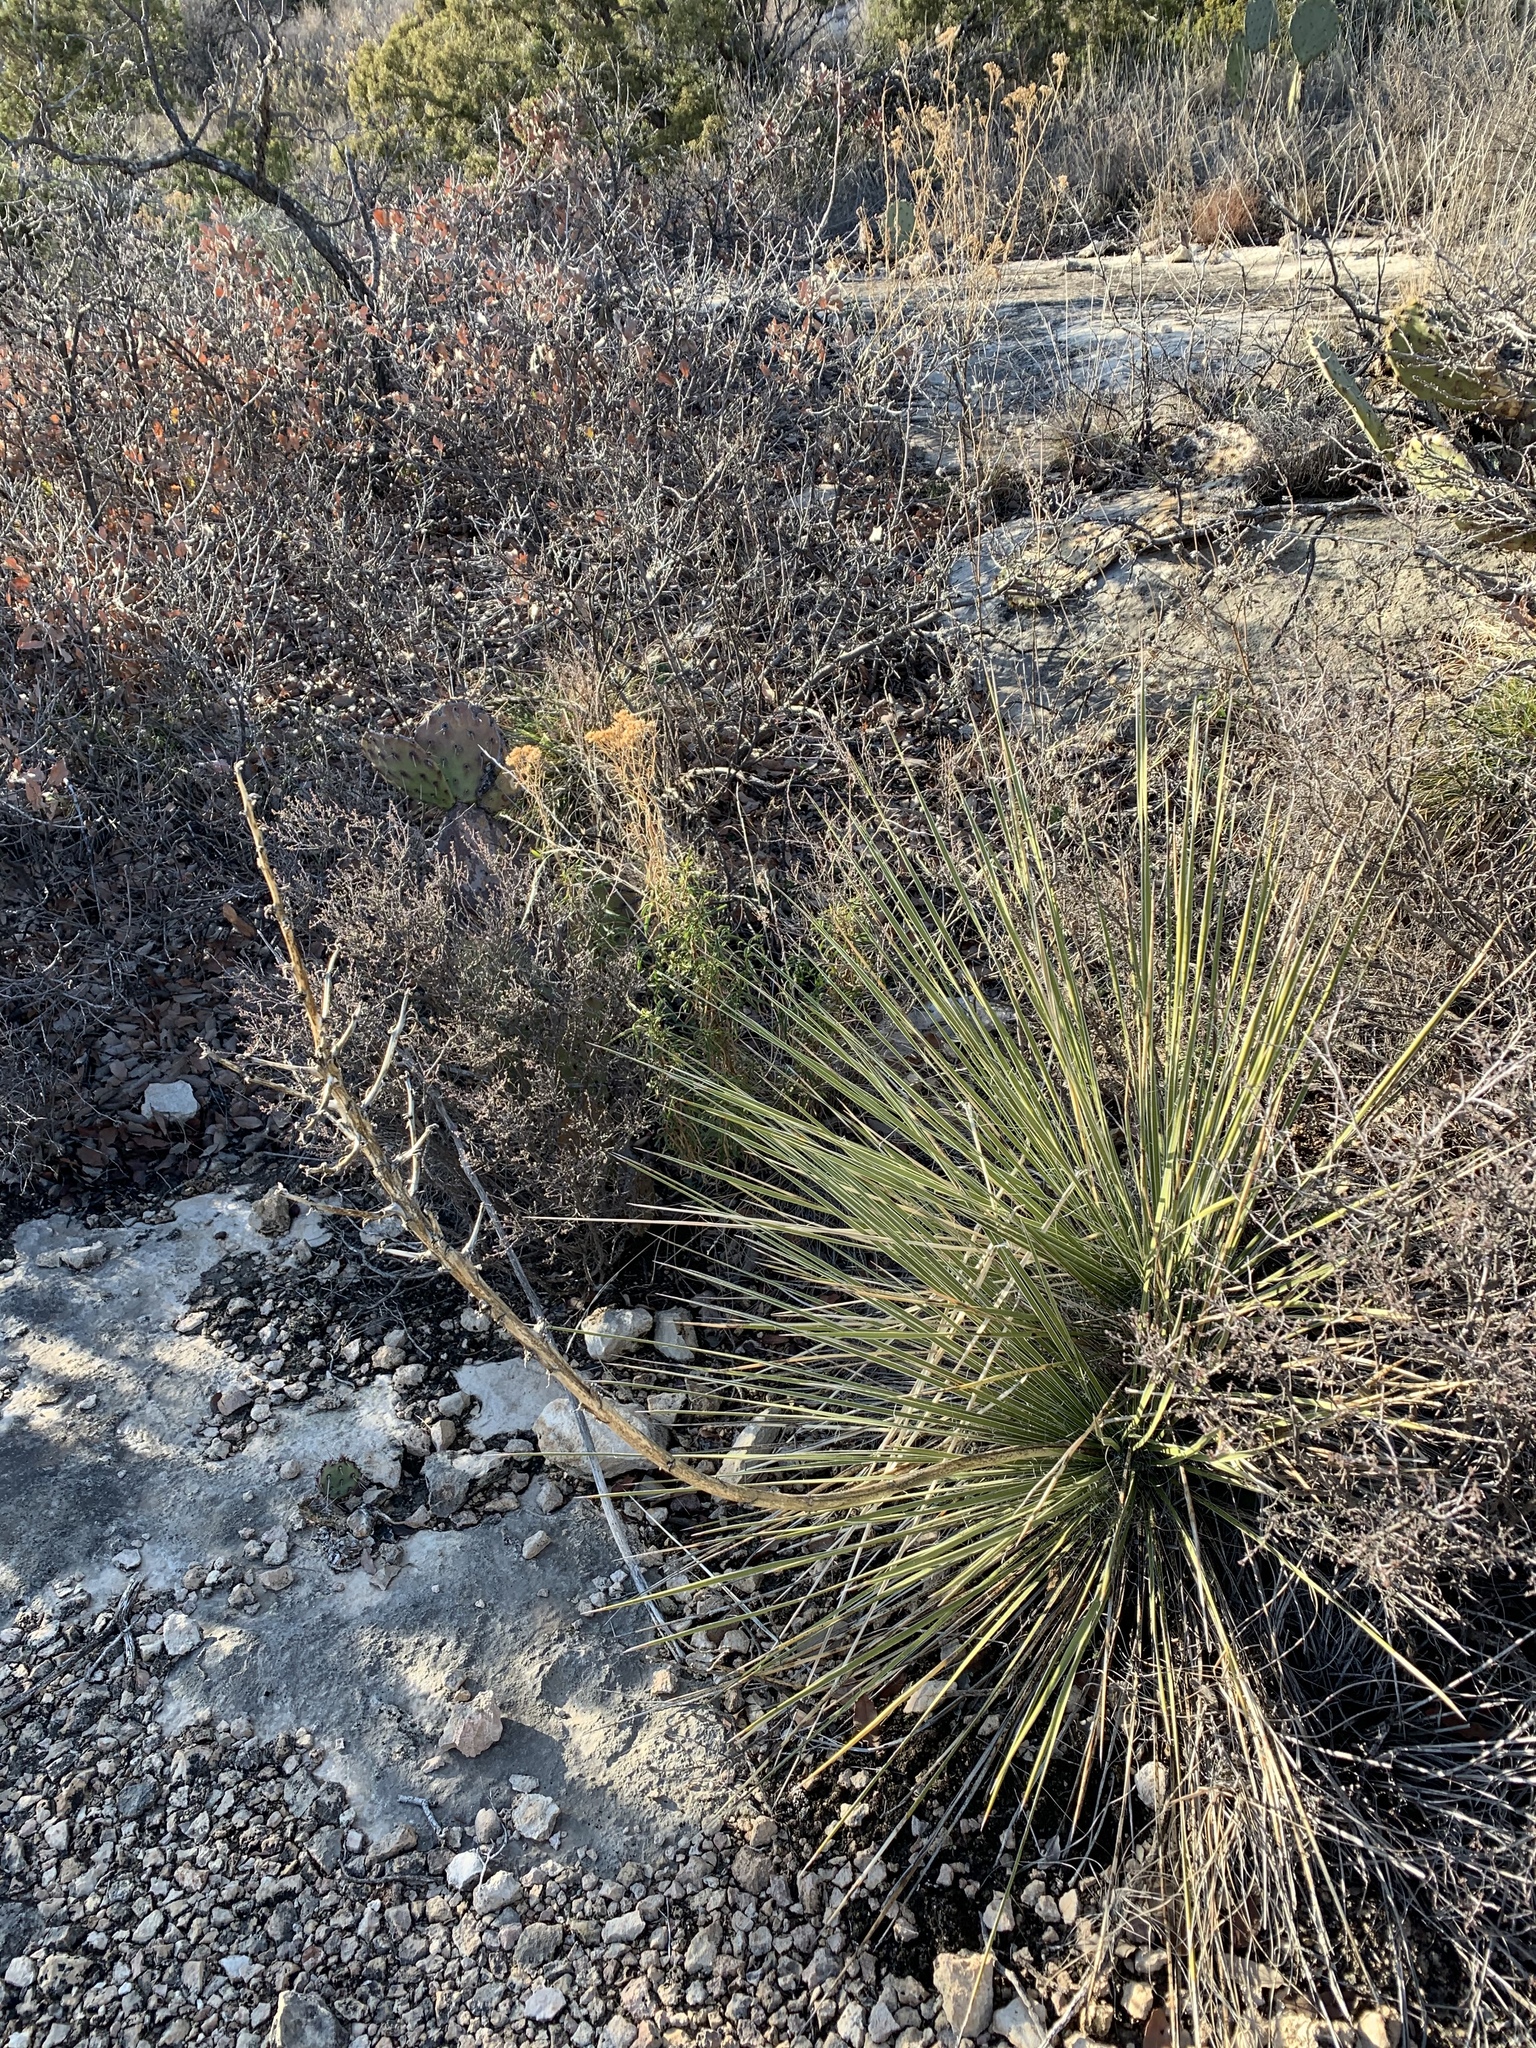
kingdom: Plantae
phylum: Tracheophyta
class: Liliopsida
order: Asparagales
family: Asparagaceae
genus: Yucca
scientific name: Yucca campestris
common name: Plains yucca
